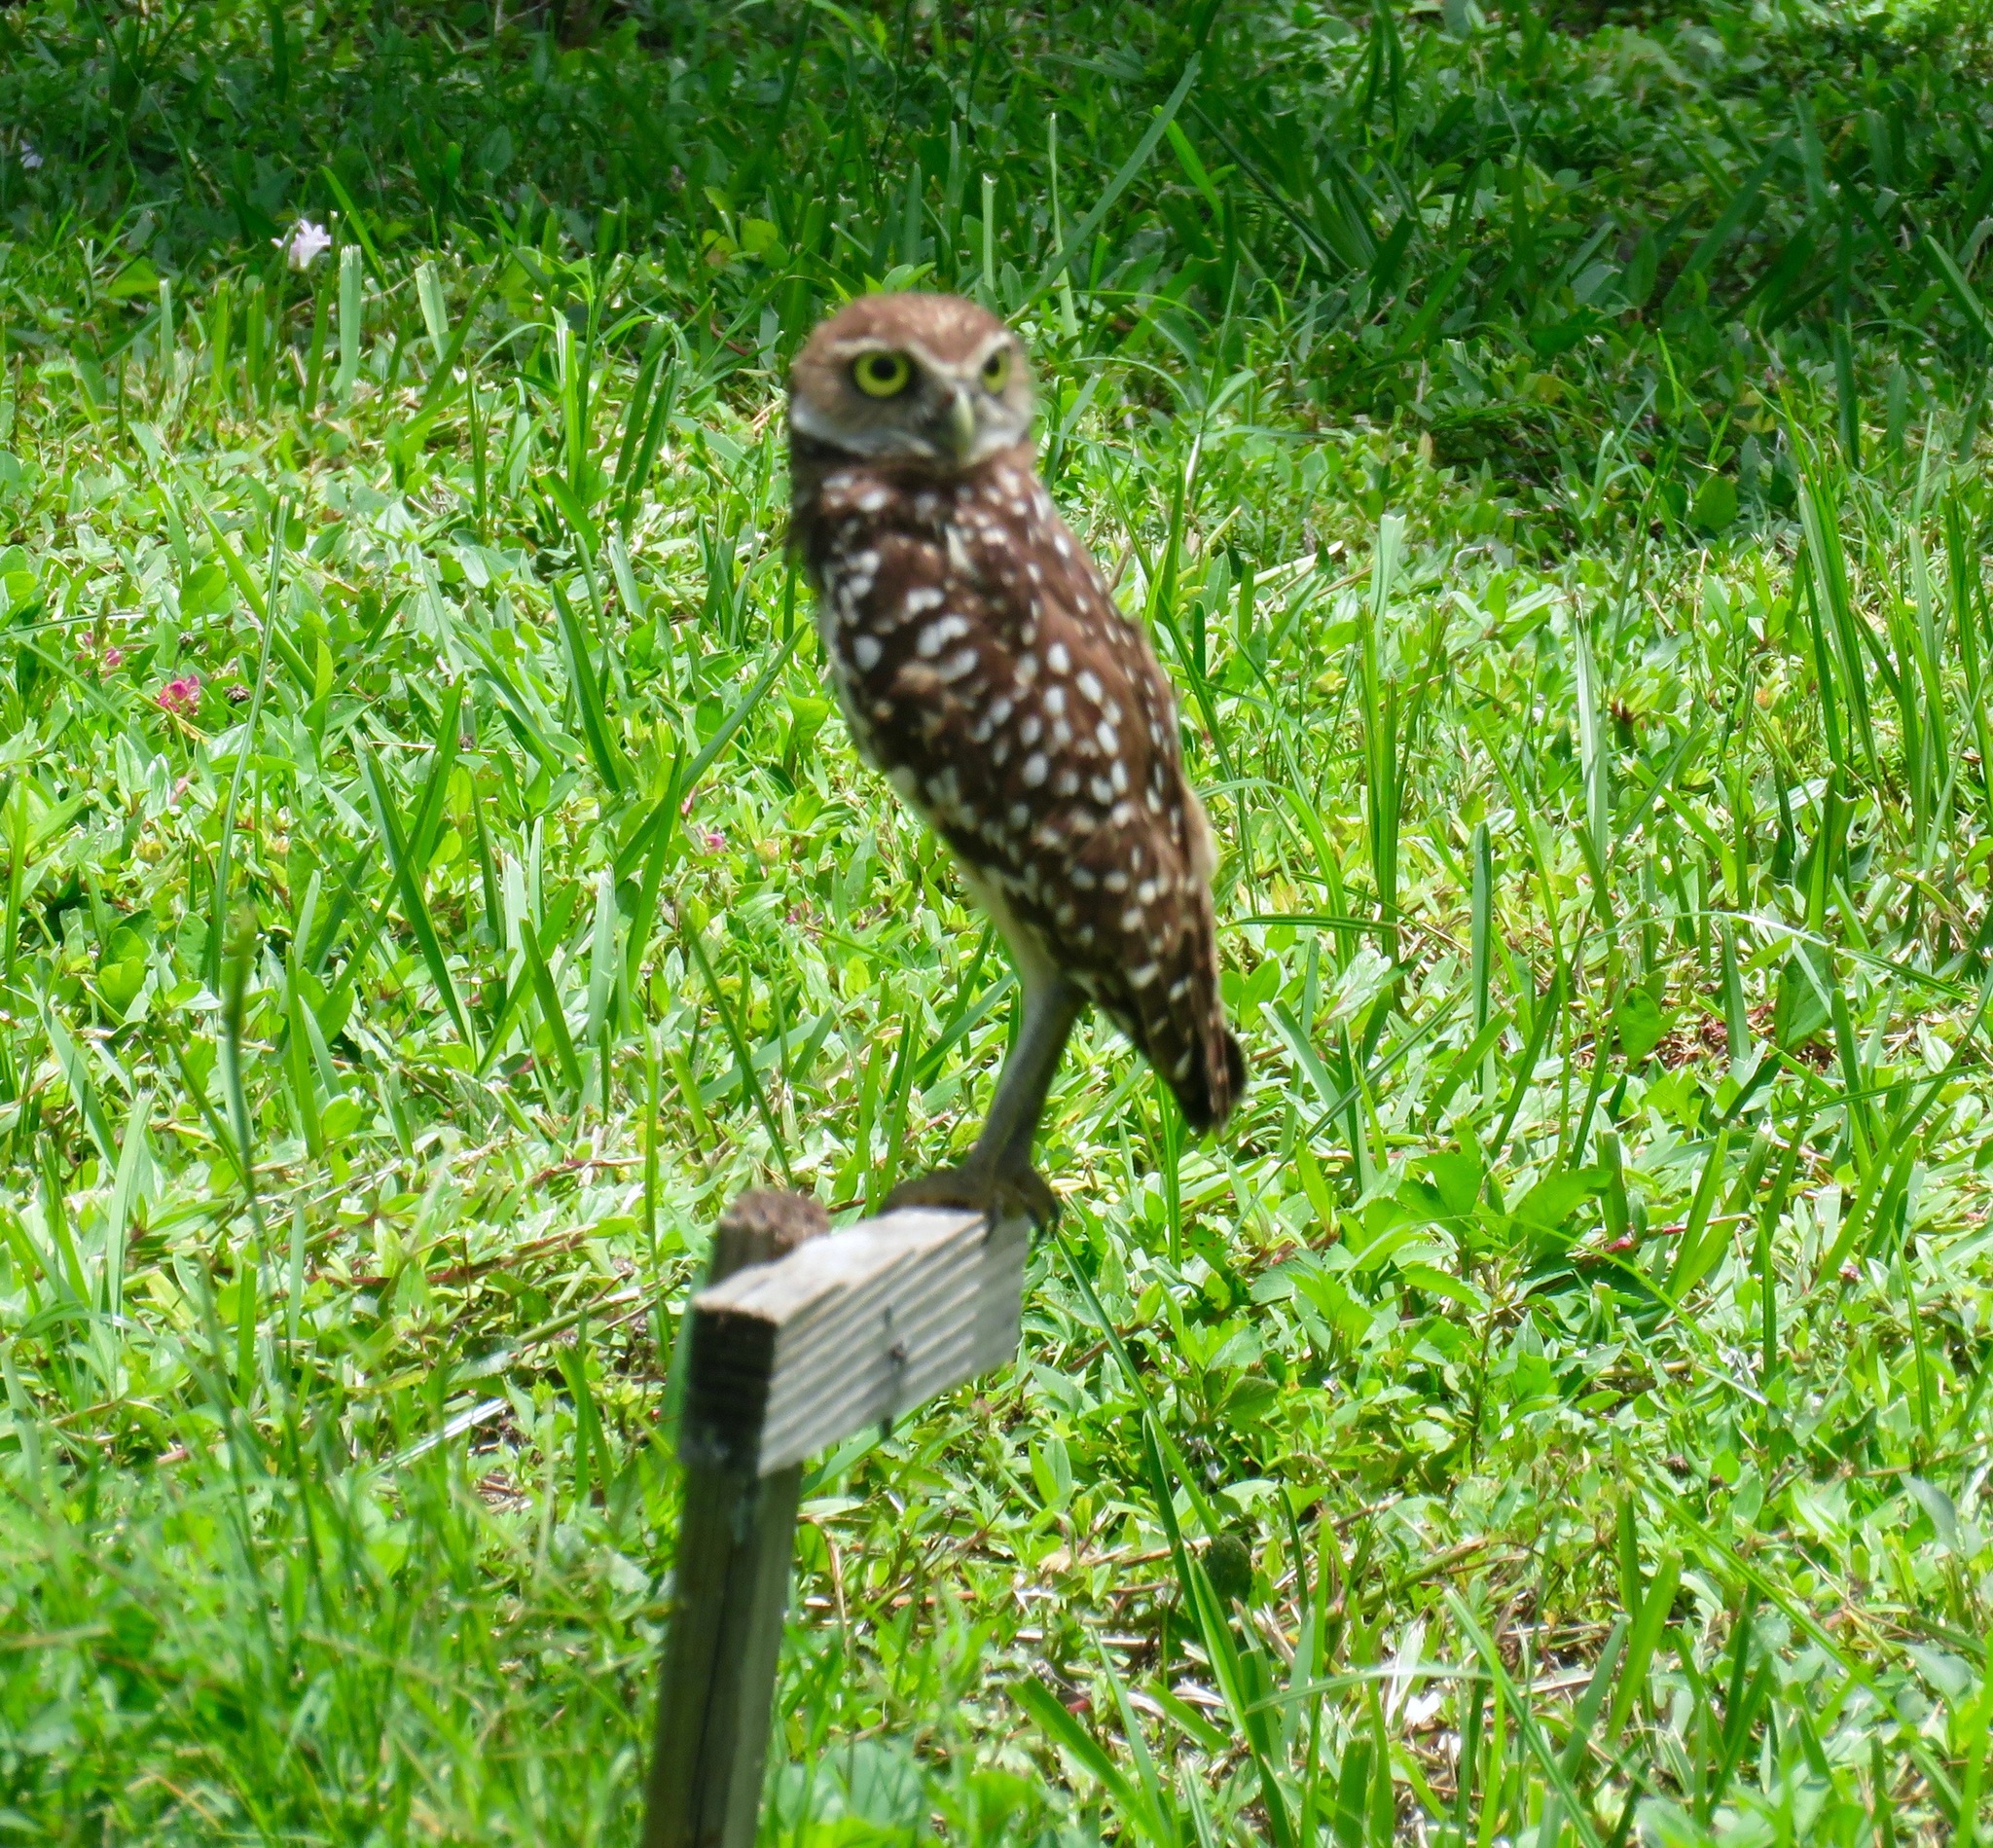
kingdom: Animalia
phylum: Chordata
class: Aves
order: Strigiformes
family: Strigidae
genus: Athene
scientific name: Athene cunicularia
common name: Burrowing owl
